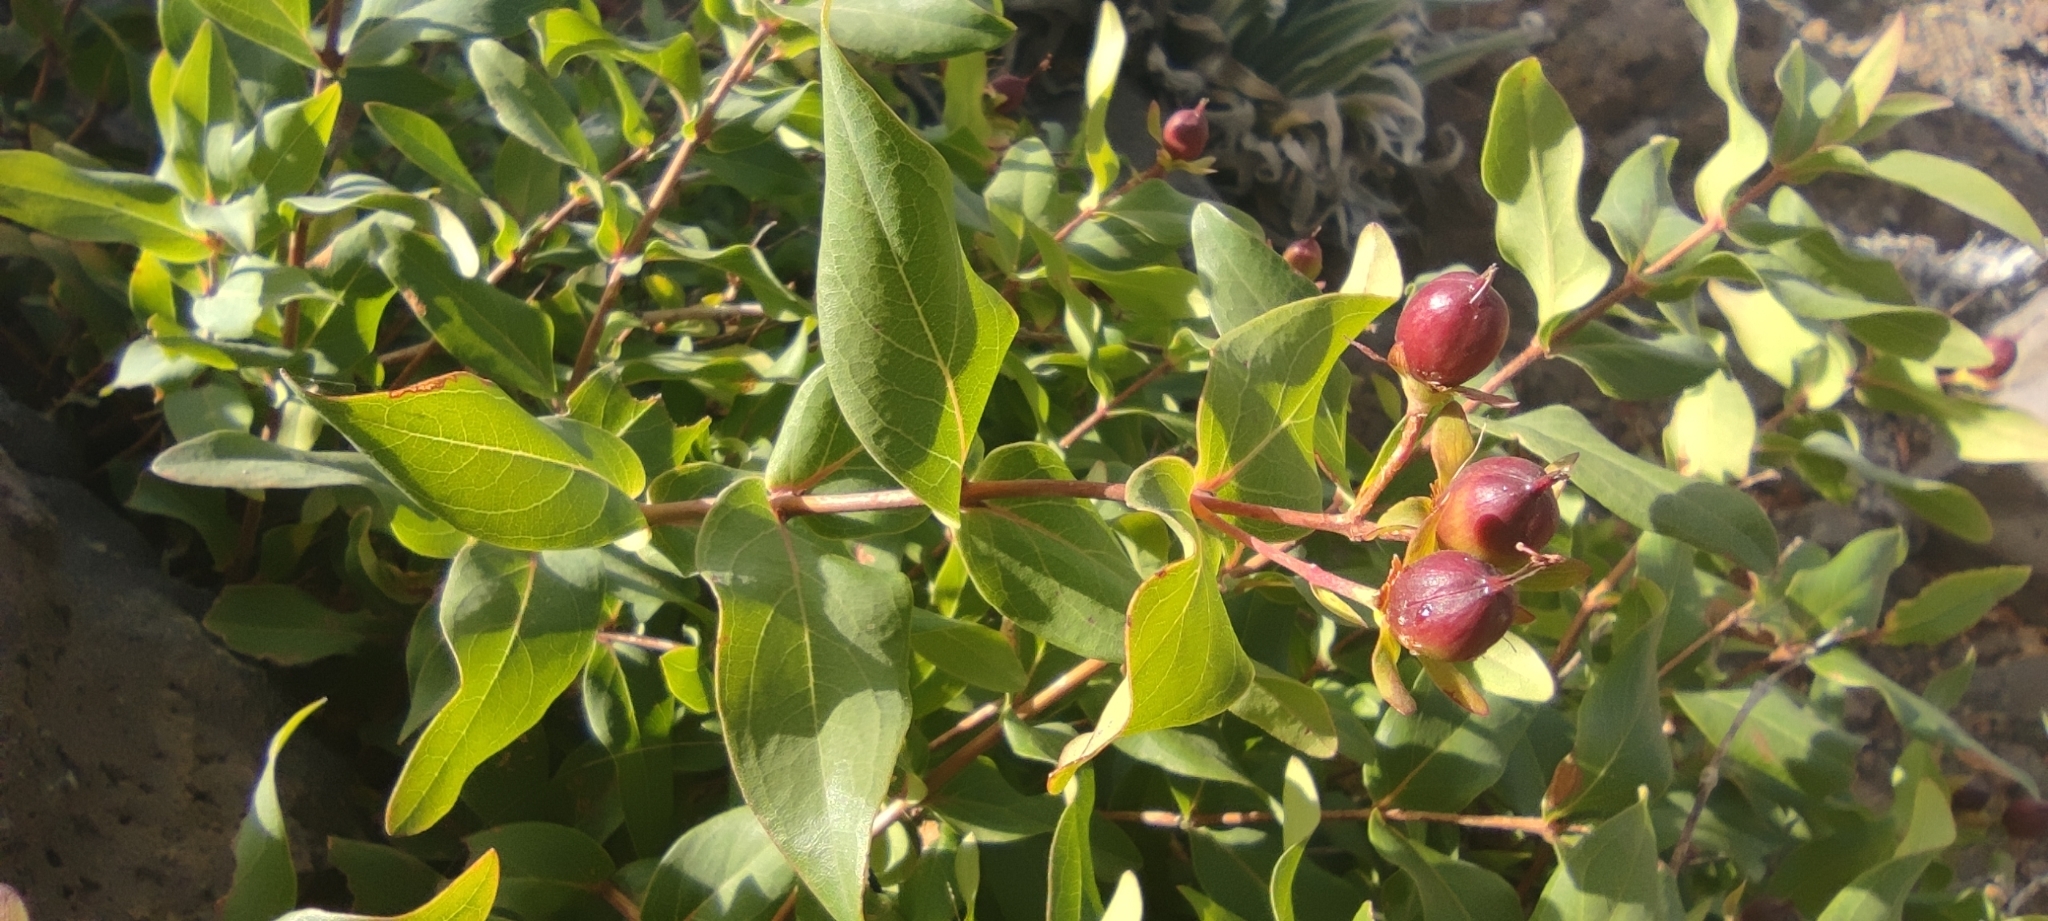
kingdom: Plantae
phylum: Tracheophyta
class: Magnoliopsida
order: Malpighiales
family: Hypericaceae
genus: Hypericum
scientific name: Hypericum grandifolium
